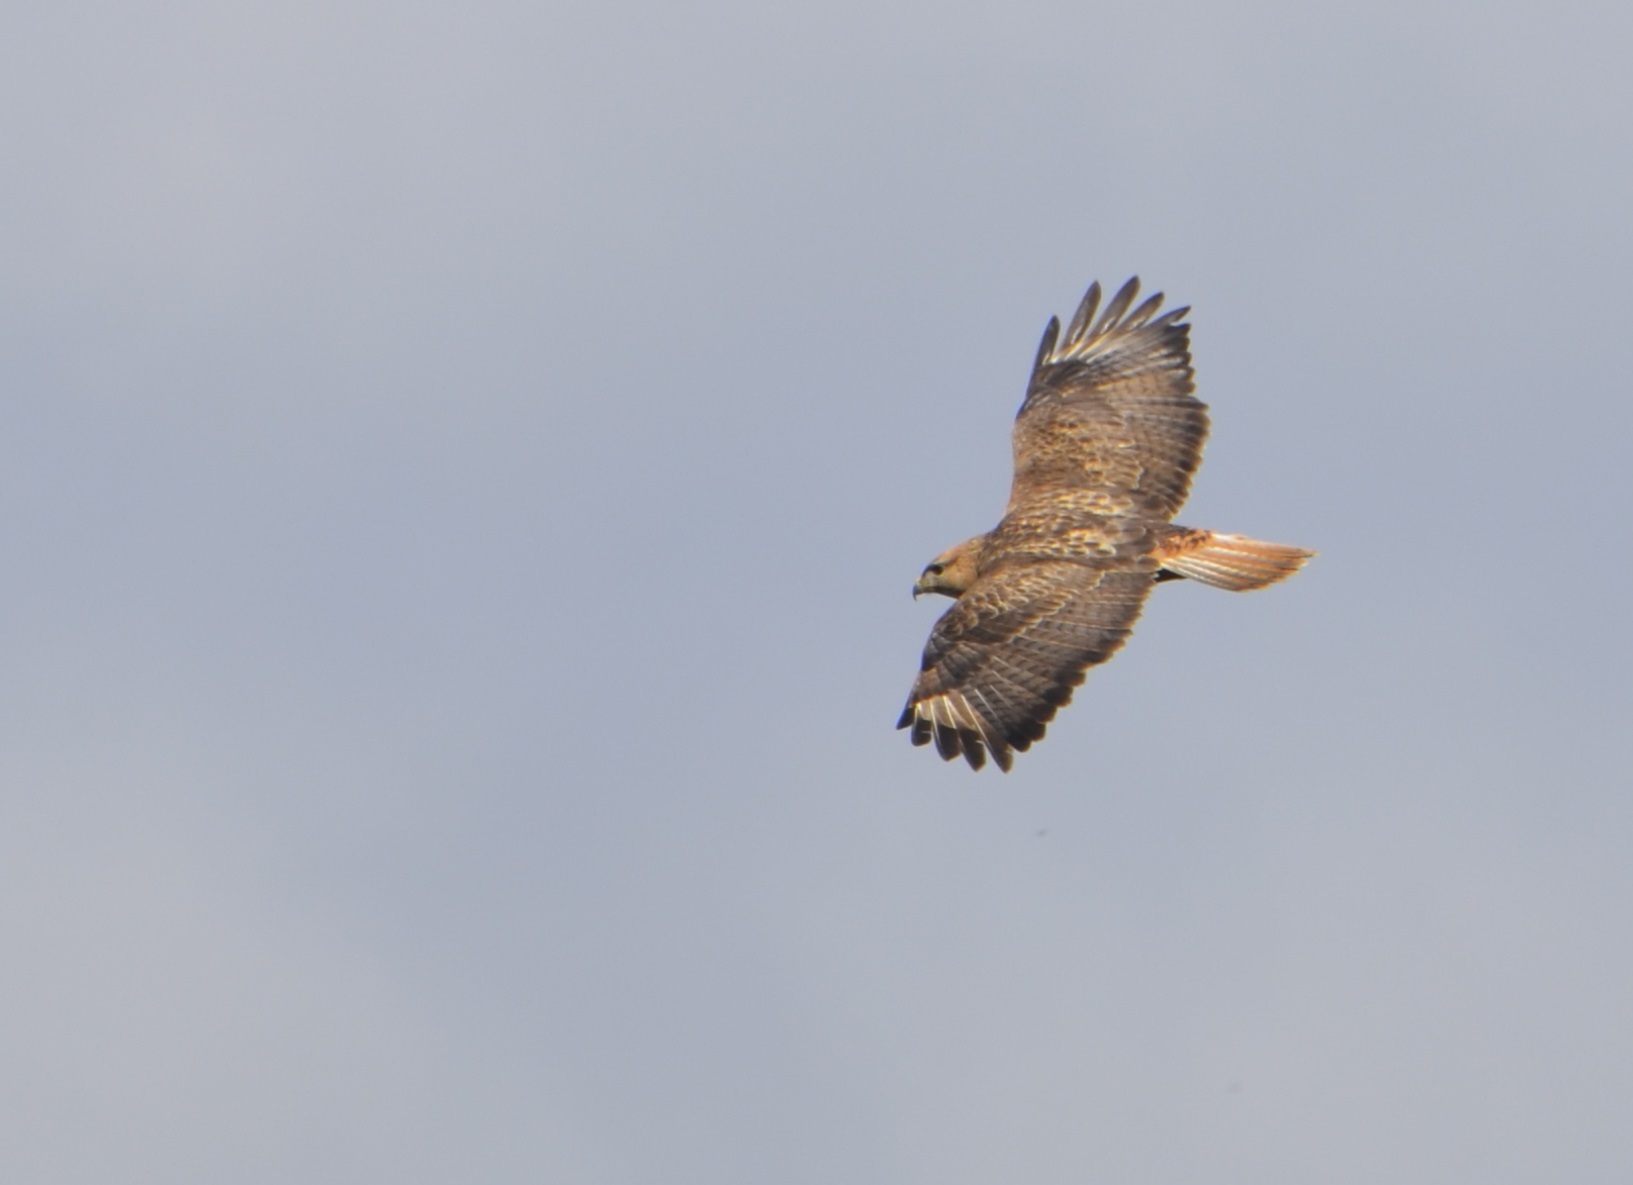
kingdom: Animalia
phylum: Chordata
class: Aves
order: Accipitriformes
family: Accipitridae
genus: Buteo
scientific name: Buteo rufinus
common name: Long-legged buzzard
